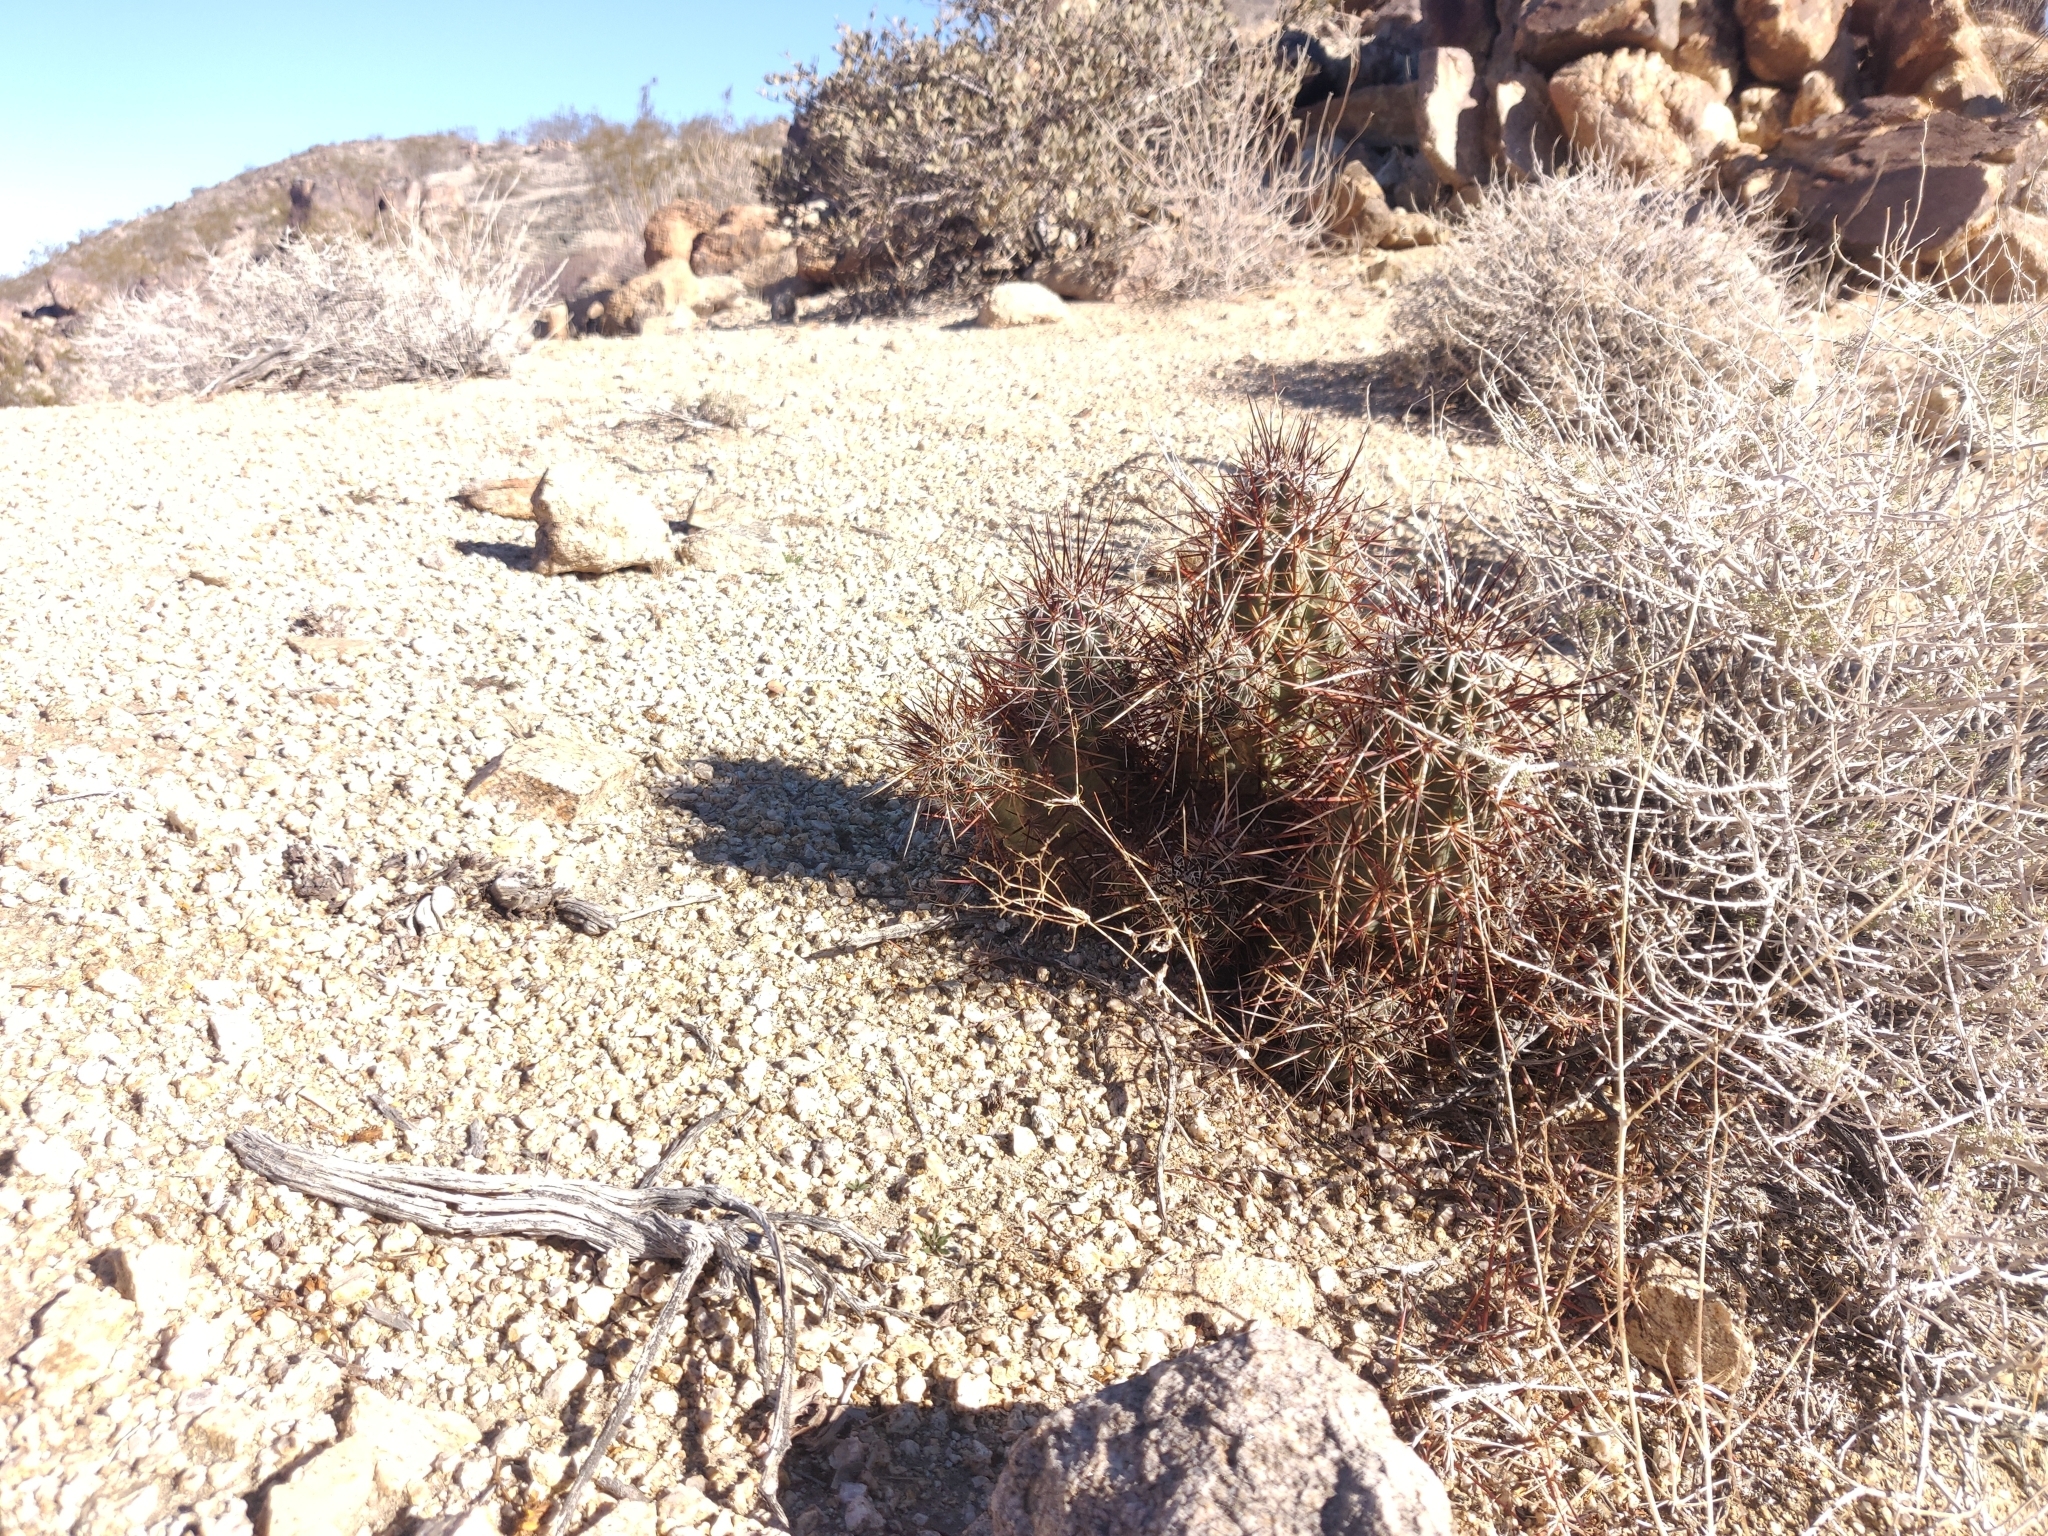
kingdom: Plantae
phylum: Tracheophyta
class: Magnoliopsida
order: Caryophyllales
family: Cactaceae
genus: Echinocereus
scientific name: Echinocereus engelmannii
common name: Engelmann's hedgehog cactus
